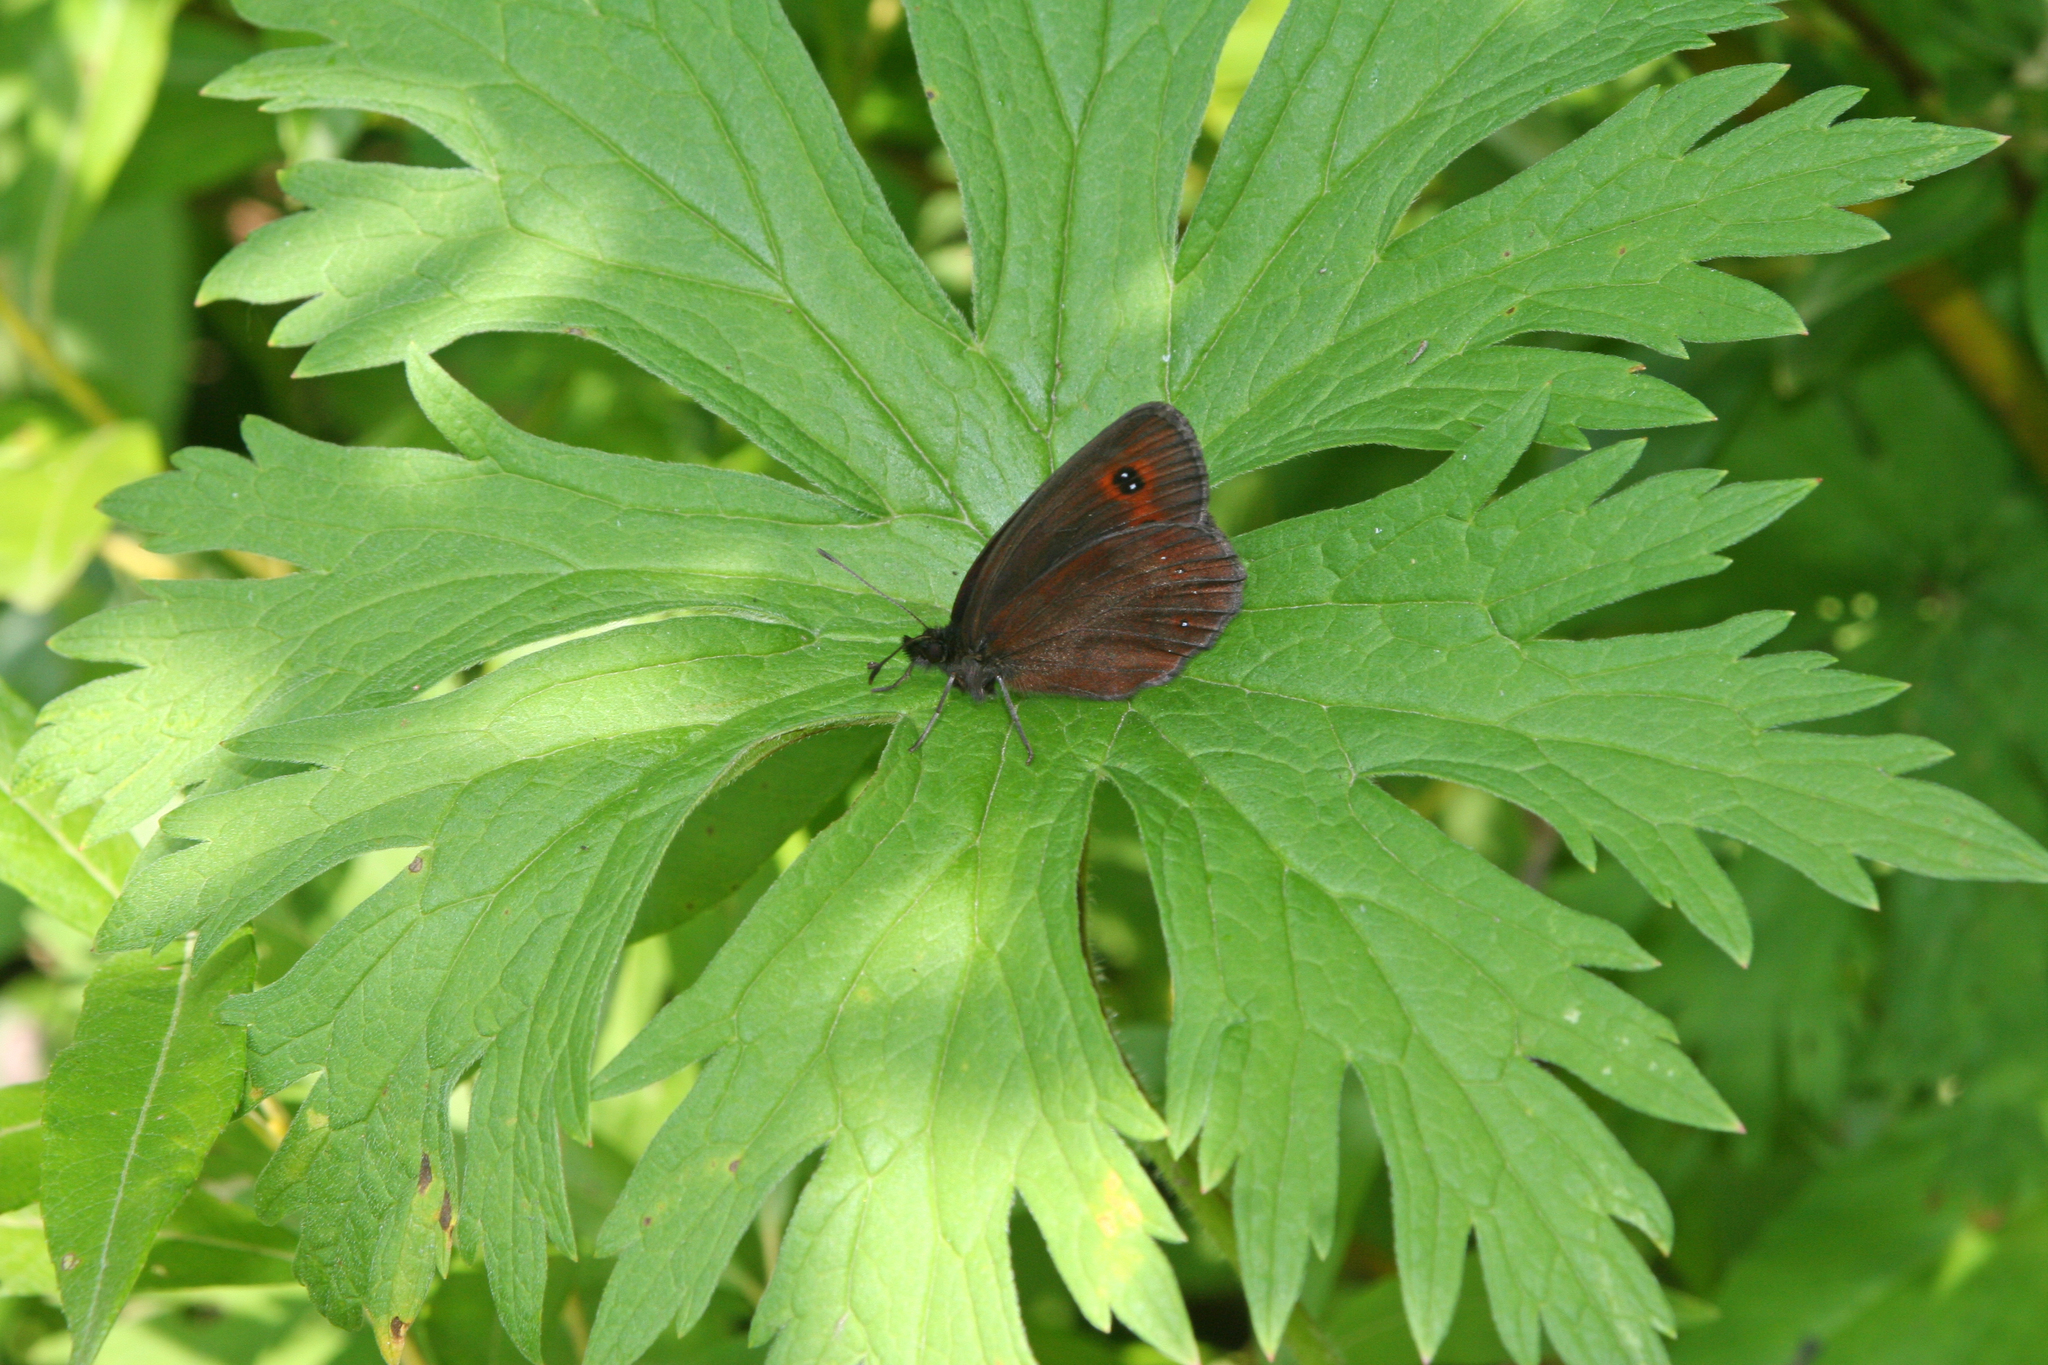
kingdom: Animalia
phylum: Arthropoda
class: Insecta
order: Lepidoptera
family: Nymphalidae
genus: Erebia
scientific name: Erebia aethiops
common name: Scotch argus
